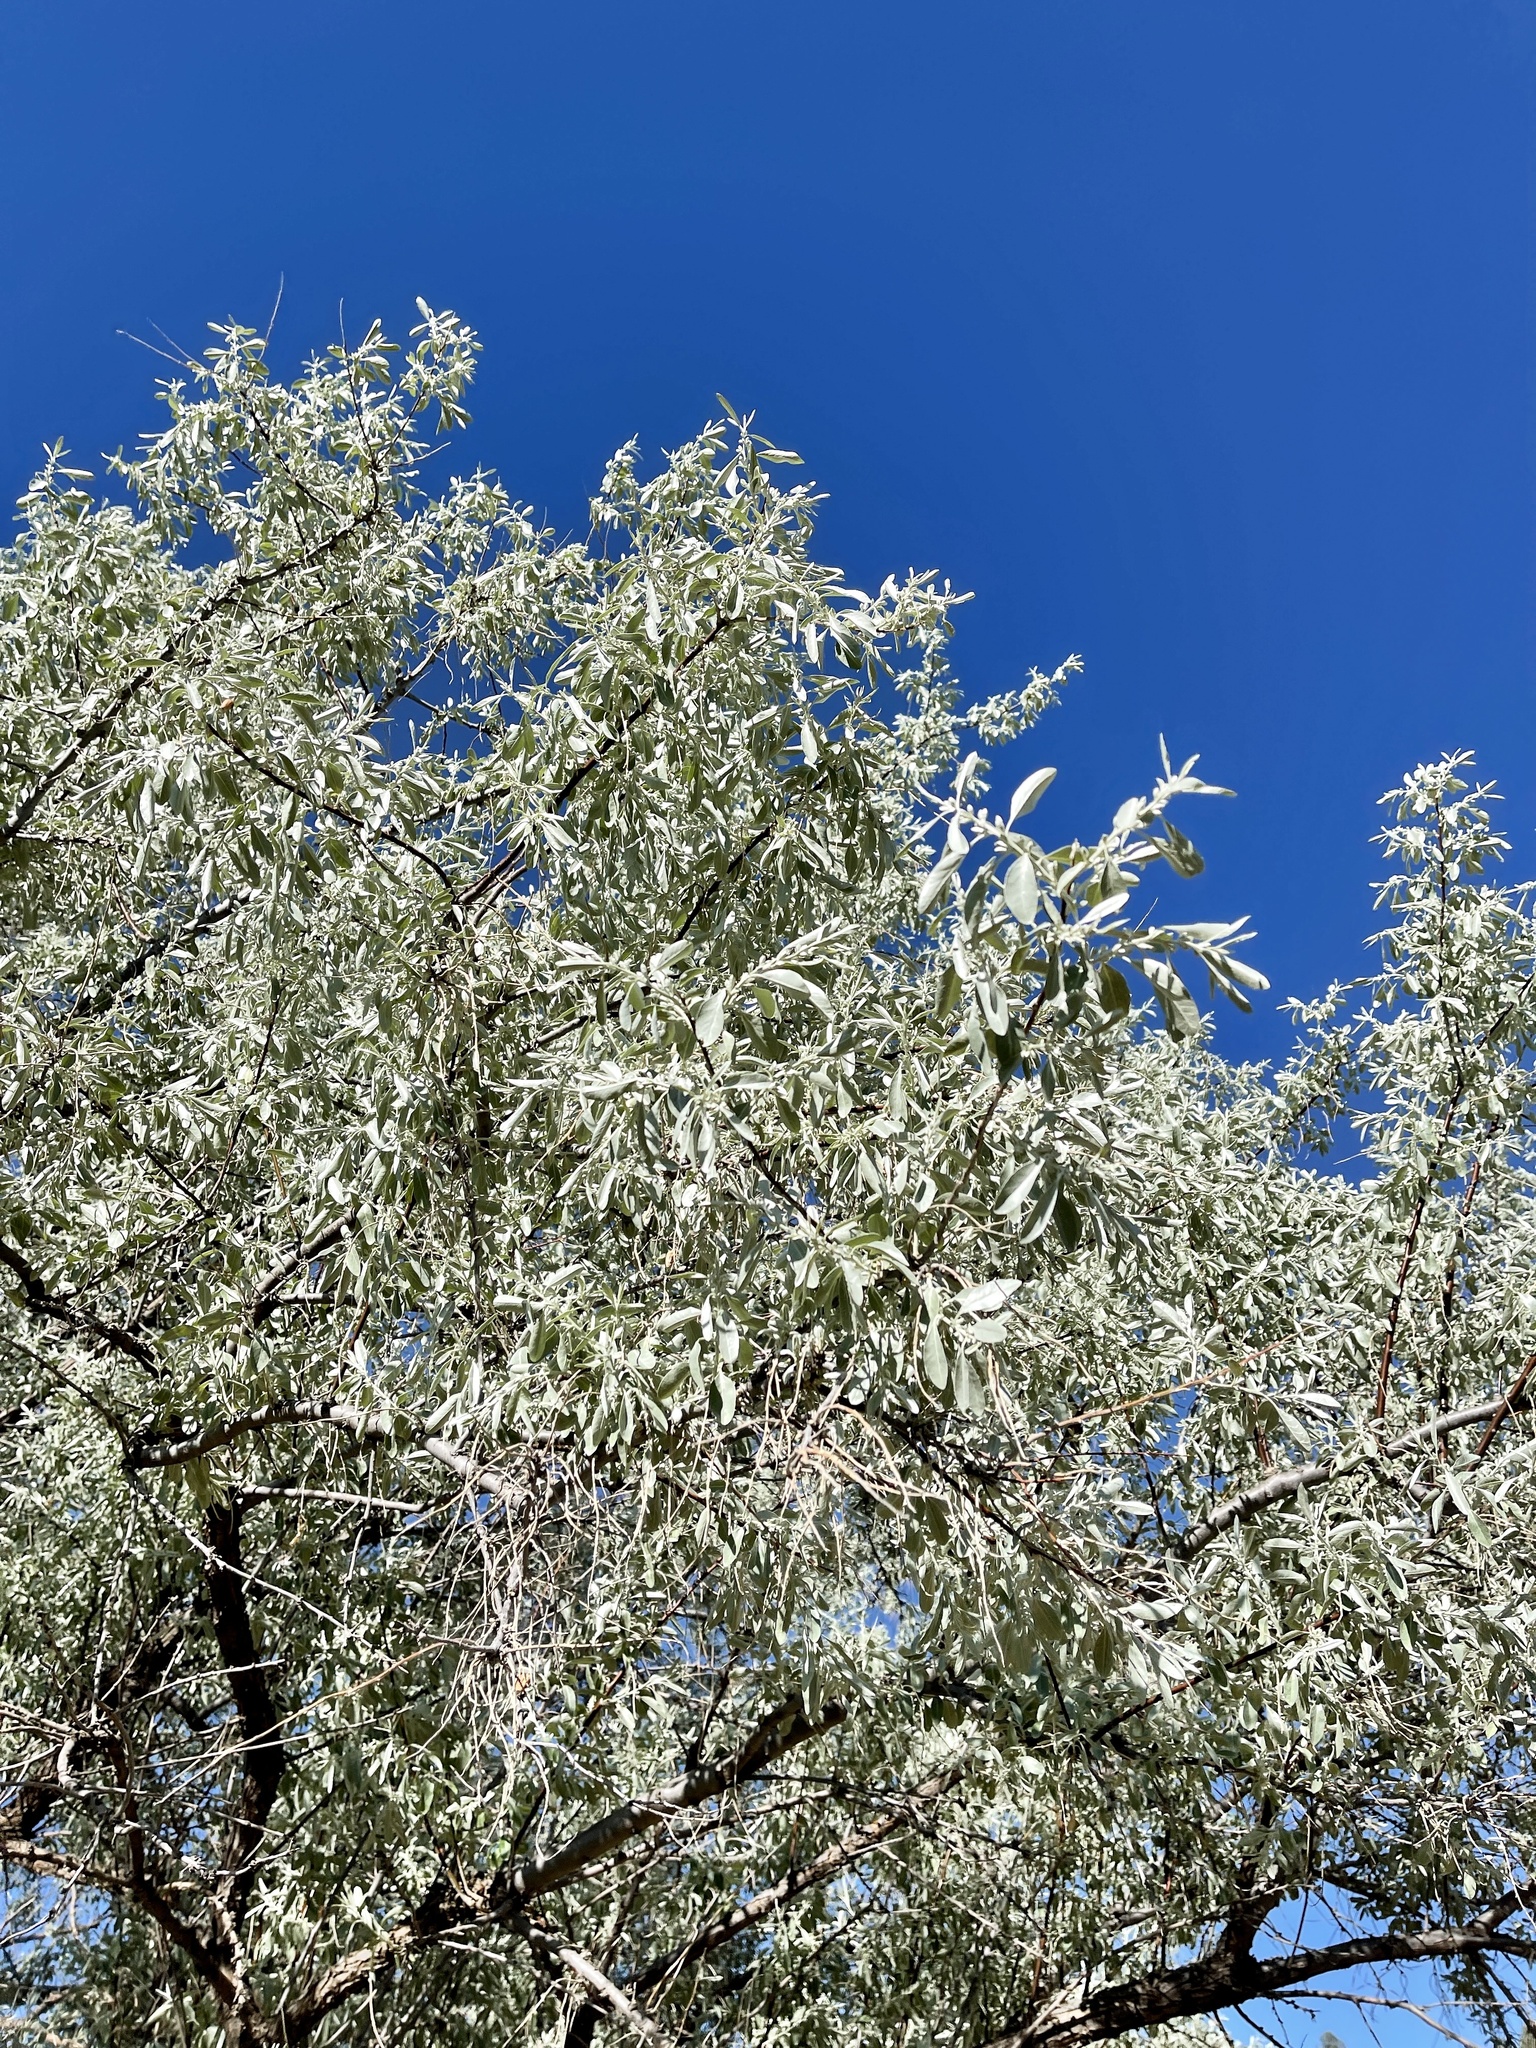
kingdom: Plantae
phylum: Tracheophyta
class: Magnoliopsida
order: Rosales
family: Elaeagnaceae
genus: Elaeagnus
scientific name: Elaeagnus angustifolia
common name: Russian olive
